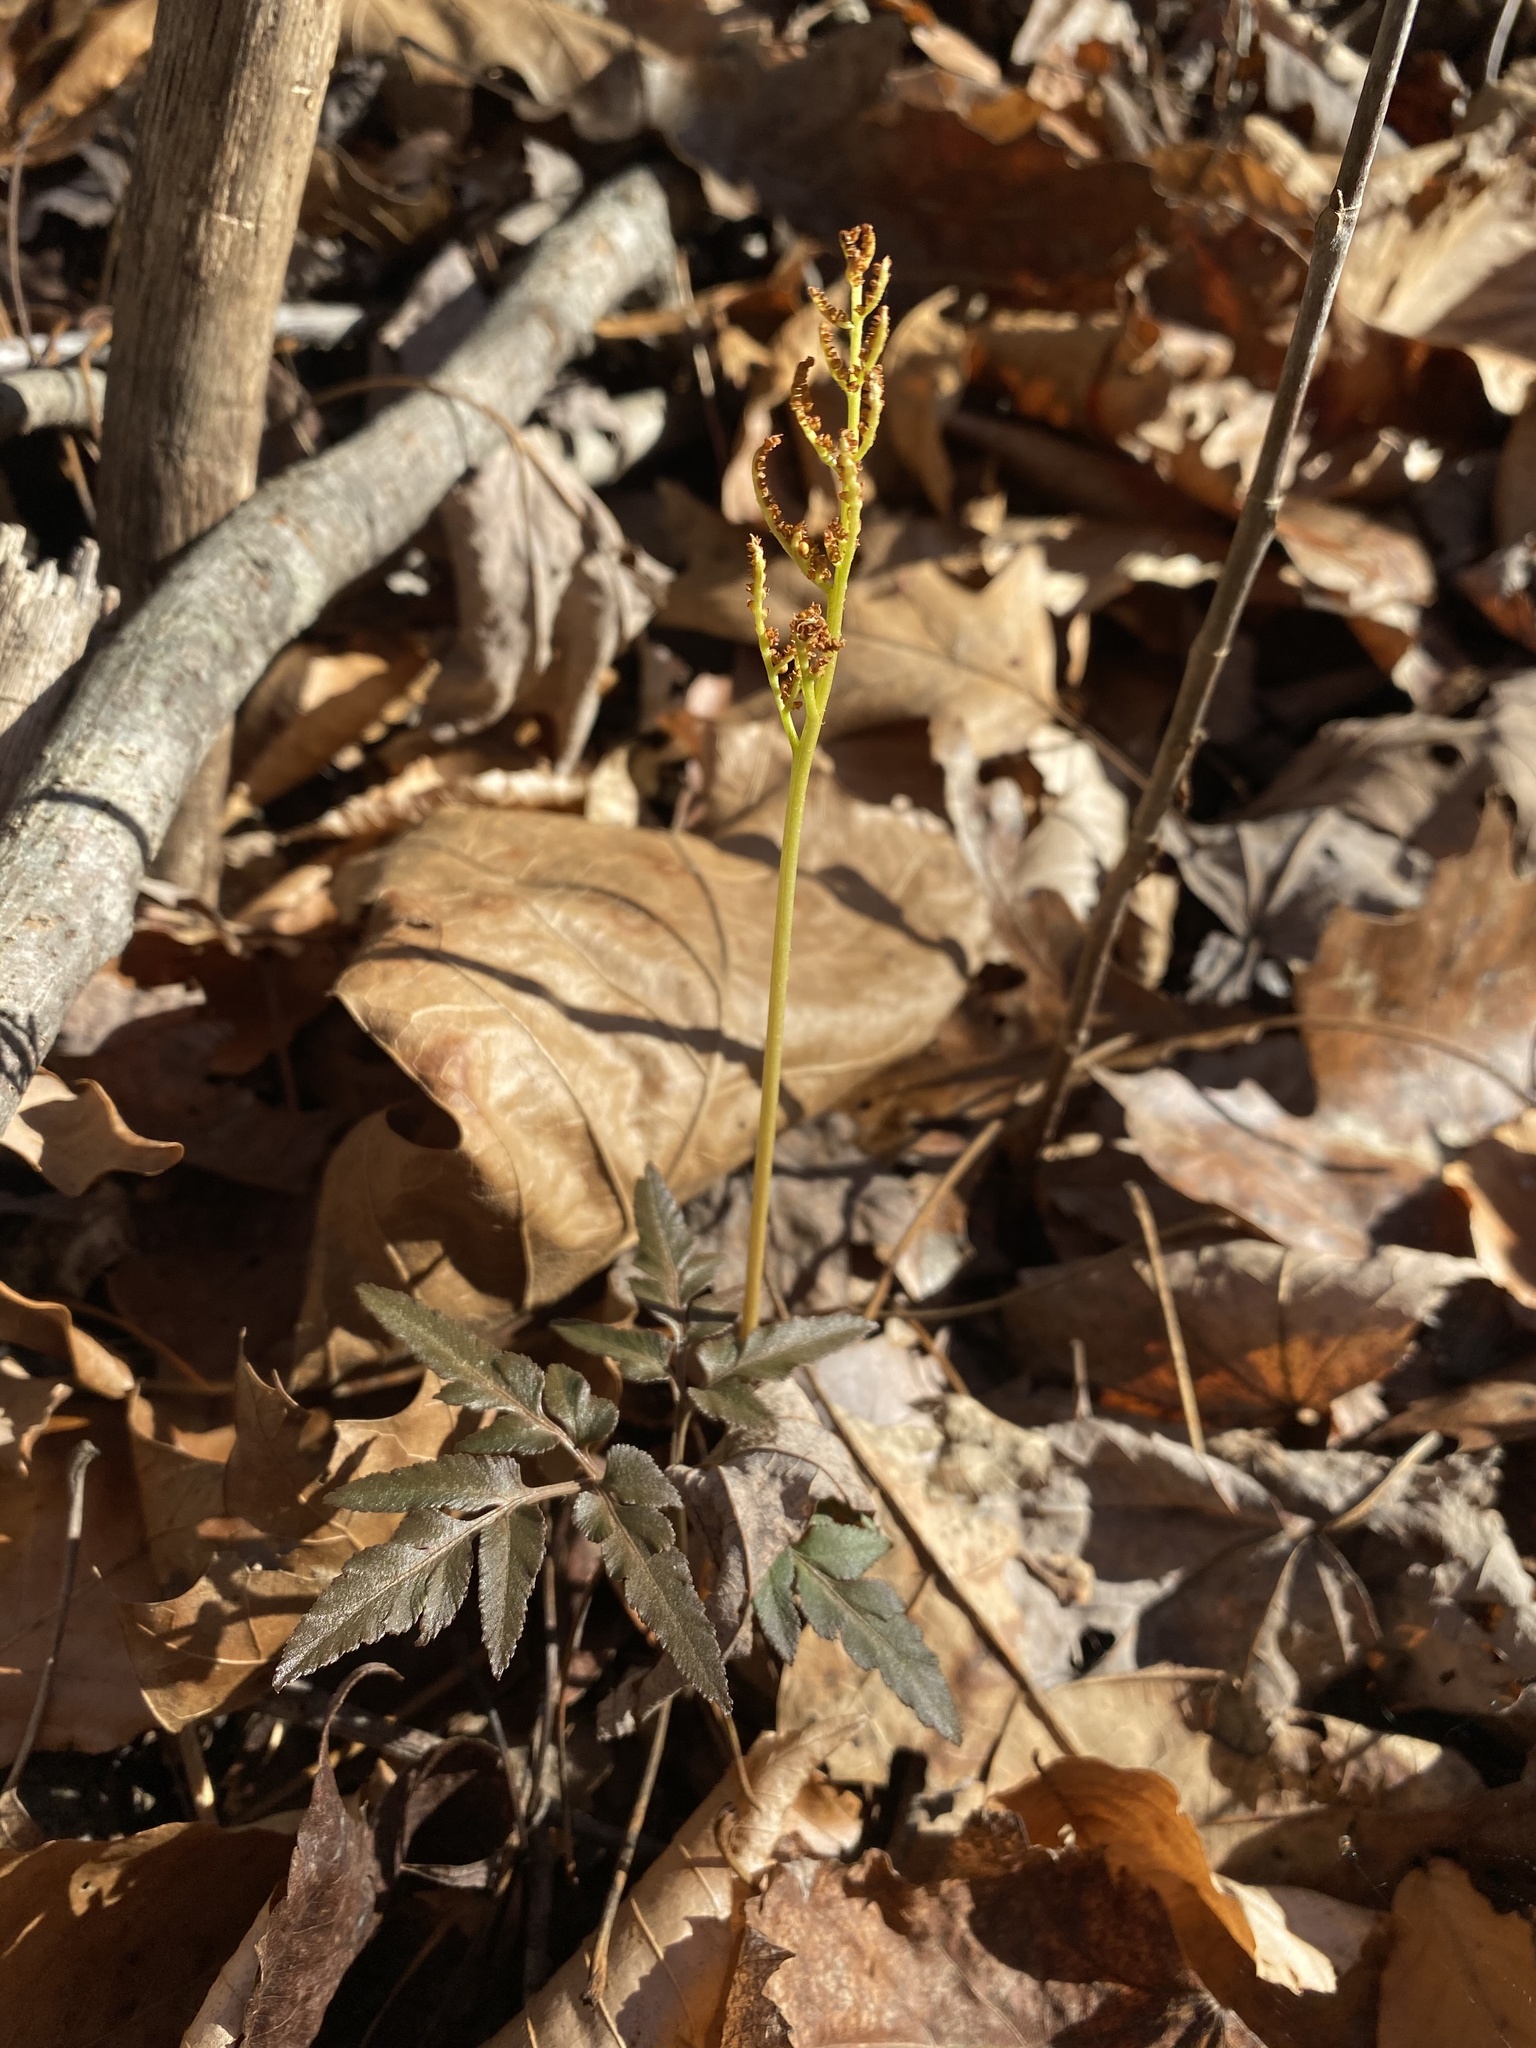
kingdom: Plantae
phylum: Tracheophyta
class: Polypodiopsida
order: Ophioglossales
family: Ophioglossaceae
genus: Sceptridium
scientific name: Sceptridium dissectum
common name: Cut-leaved grapefern
